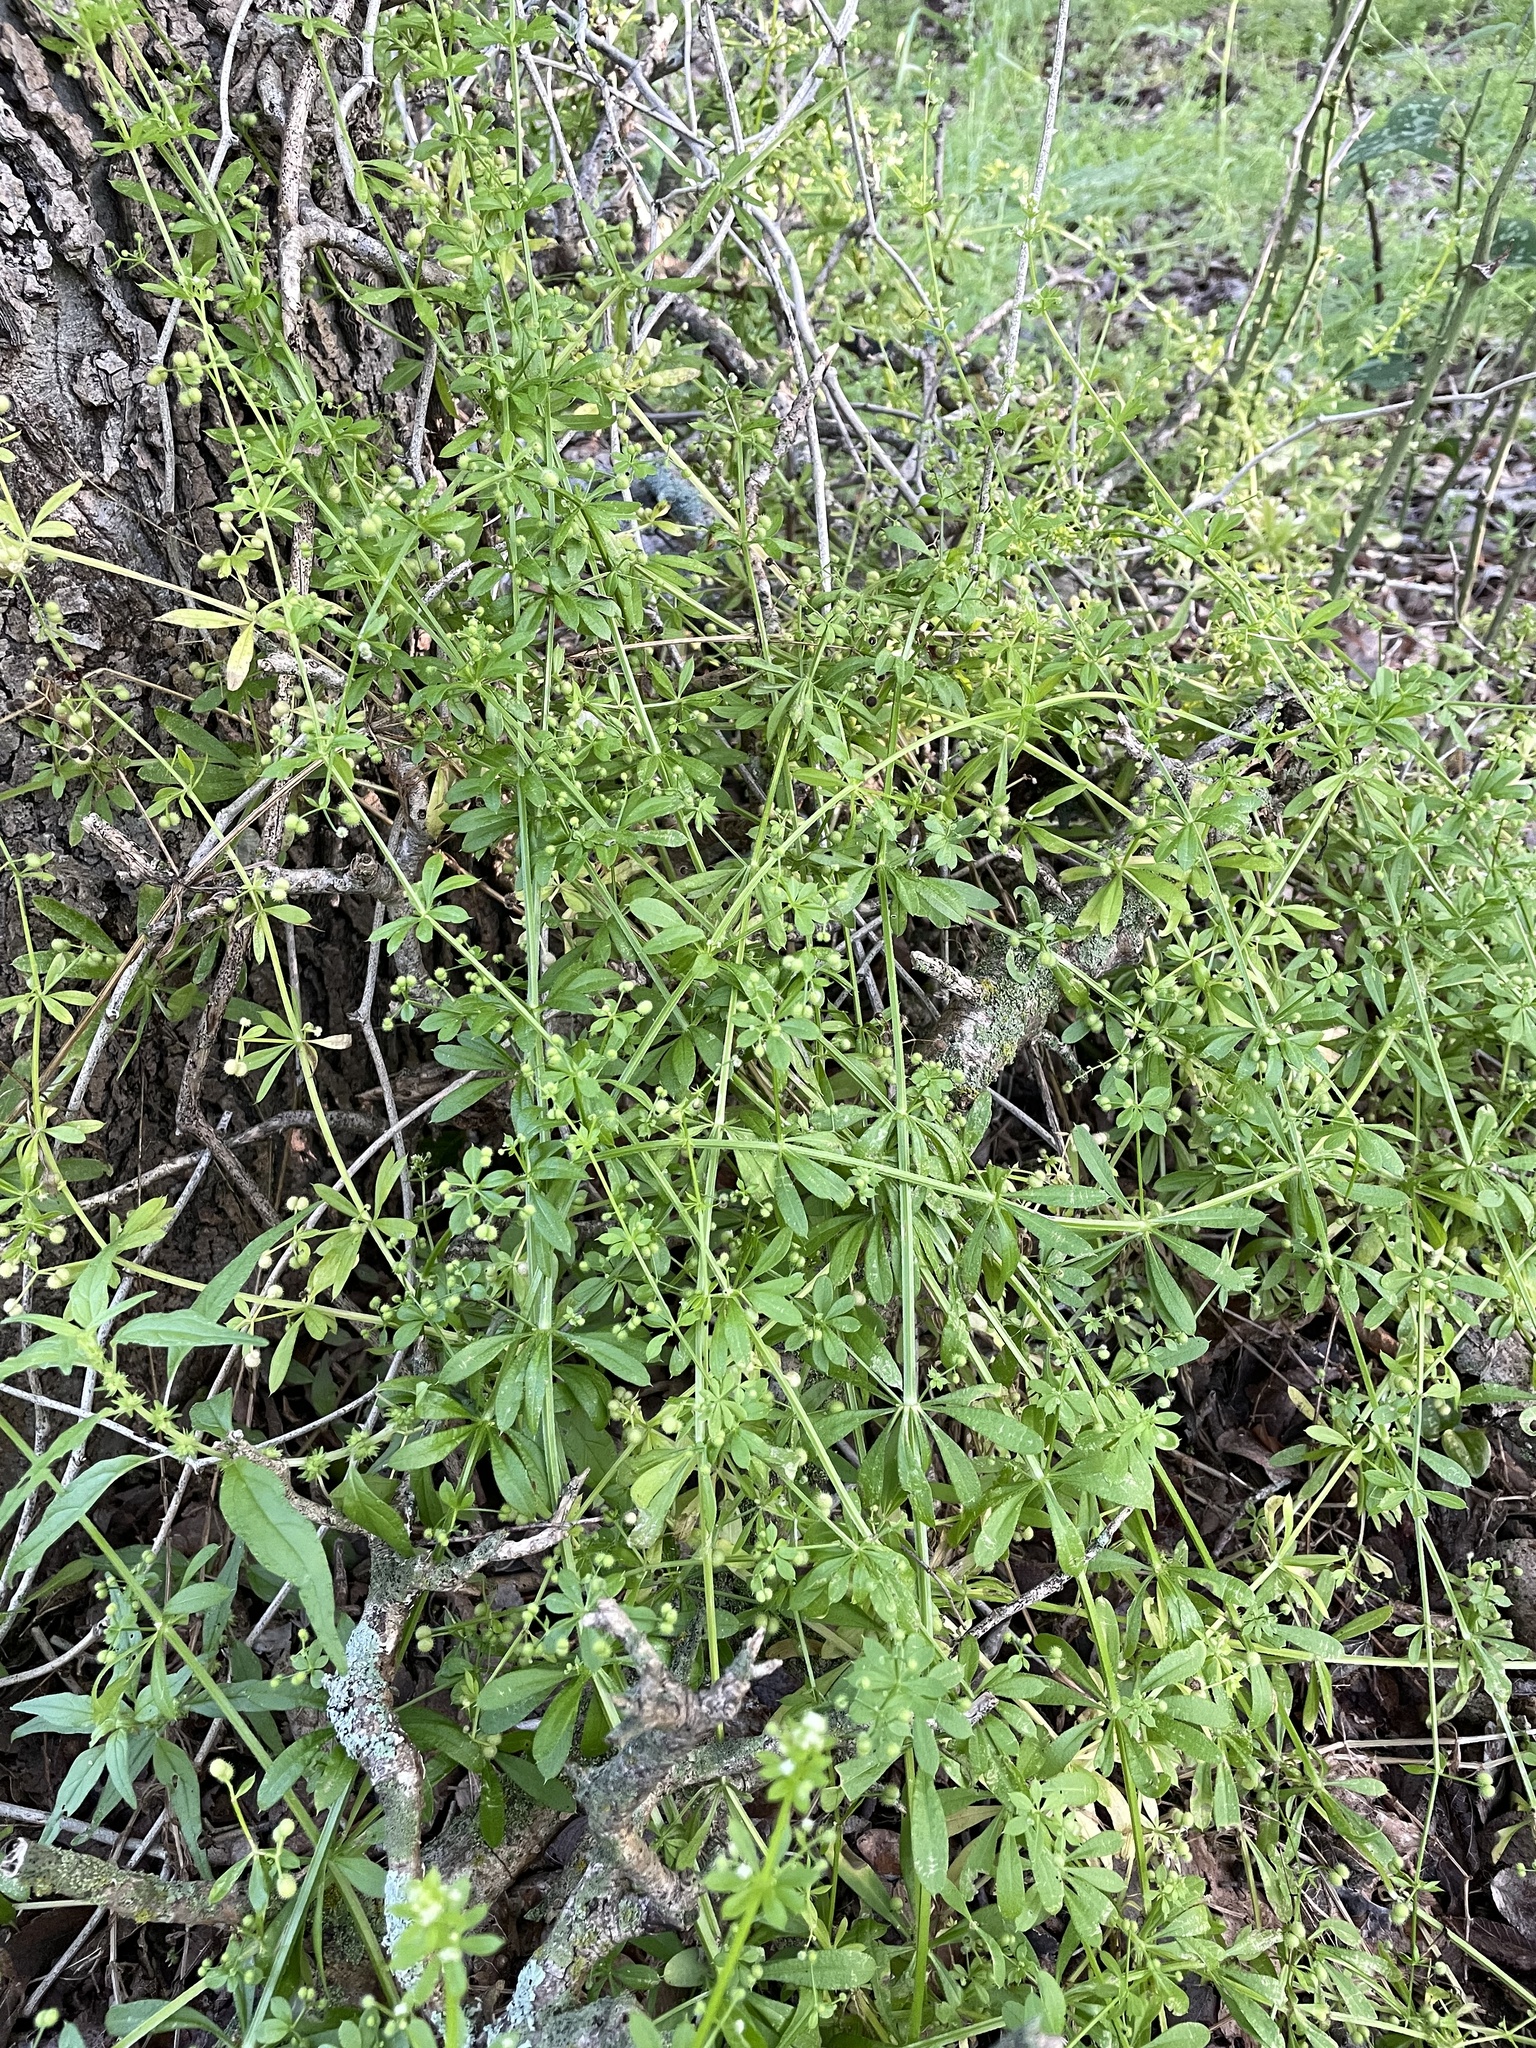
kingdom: Plantae
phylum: Tracheophyta
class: Magnoliopsida
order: Gentianales
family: Rubiaceae
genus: Galium
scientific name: Galium aparine
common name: Cleavers
